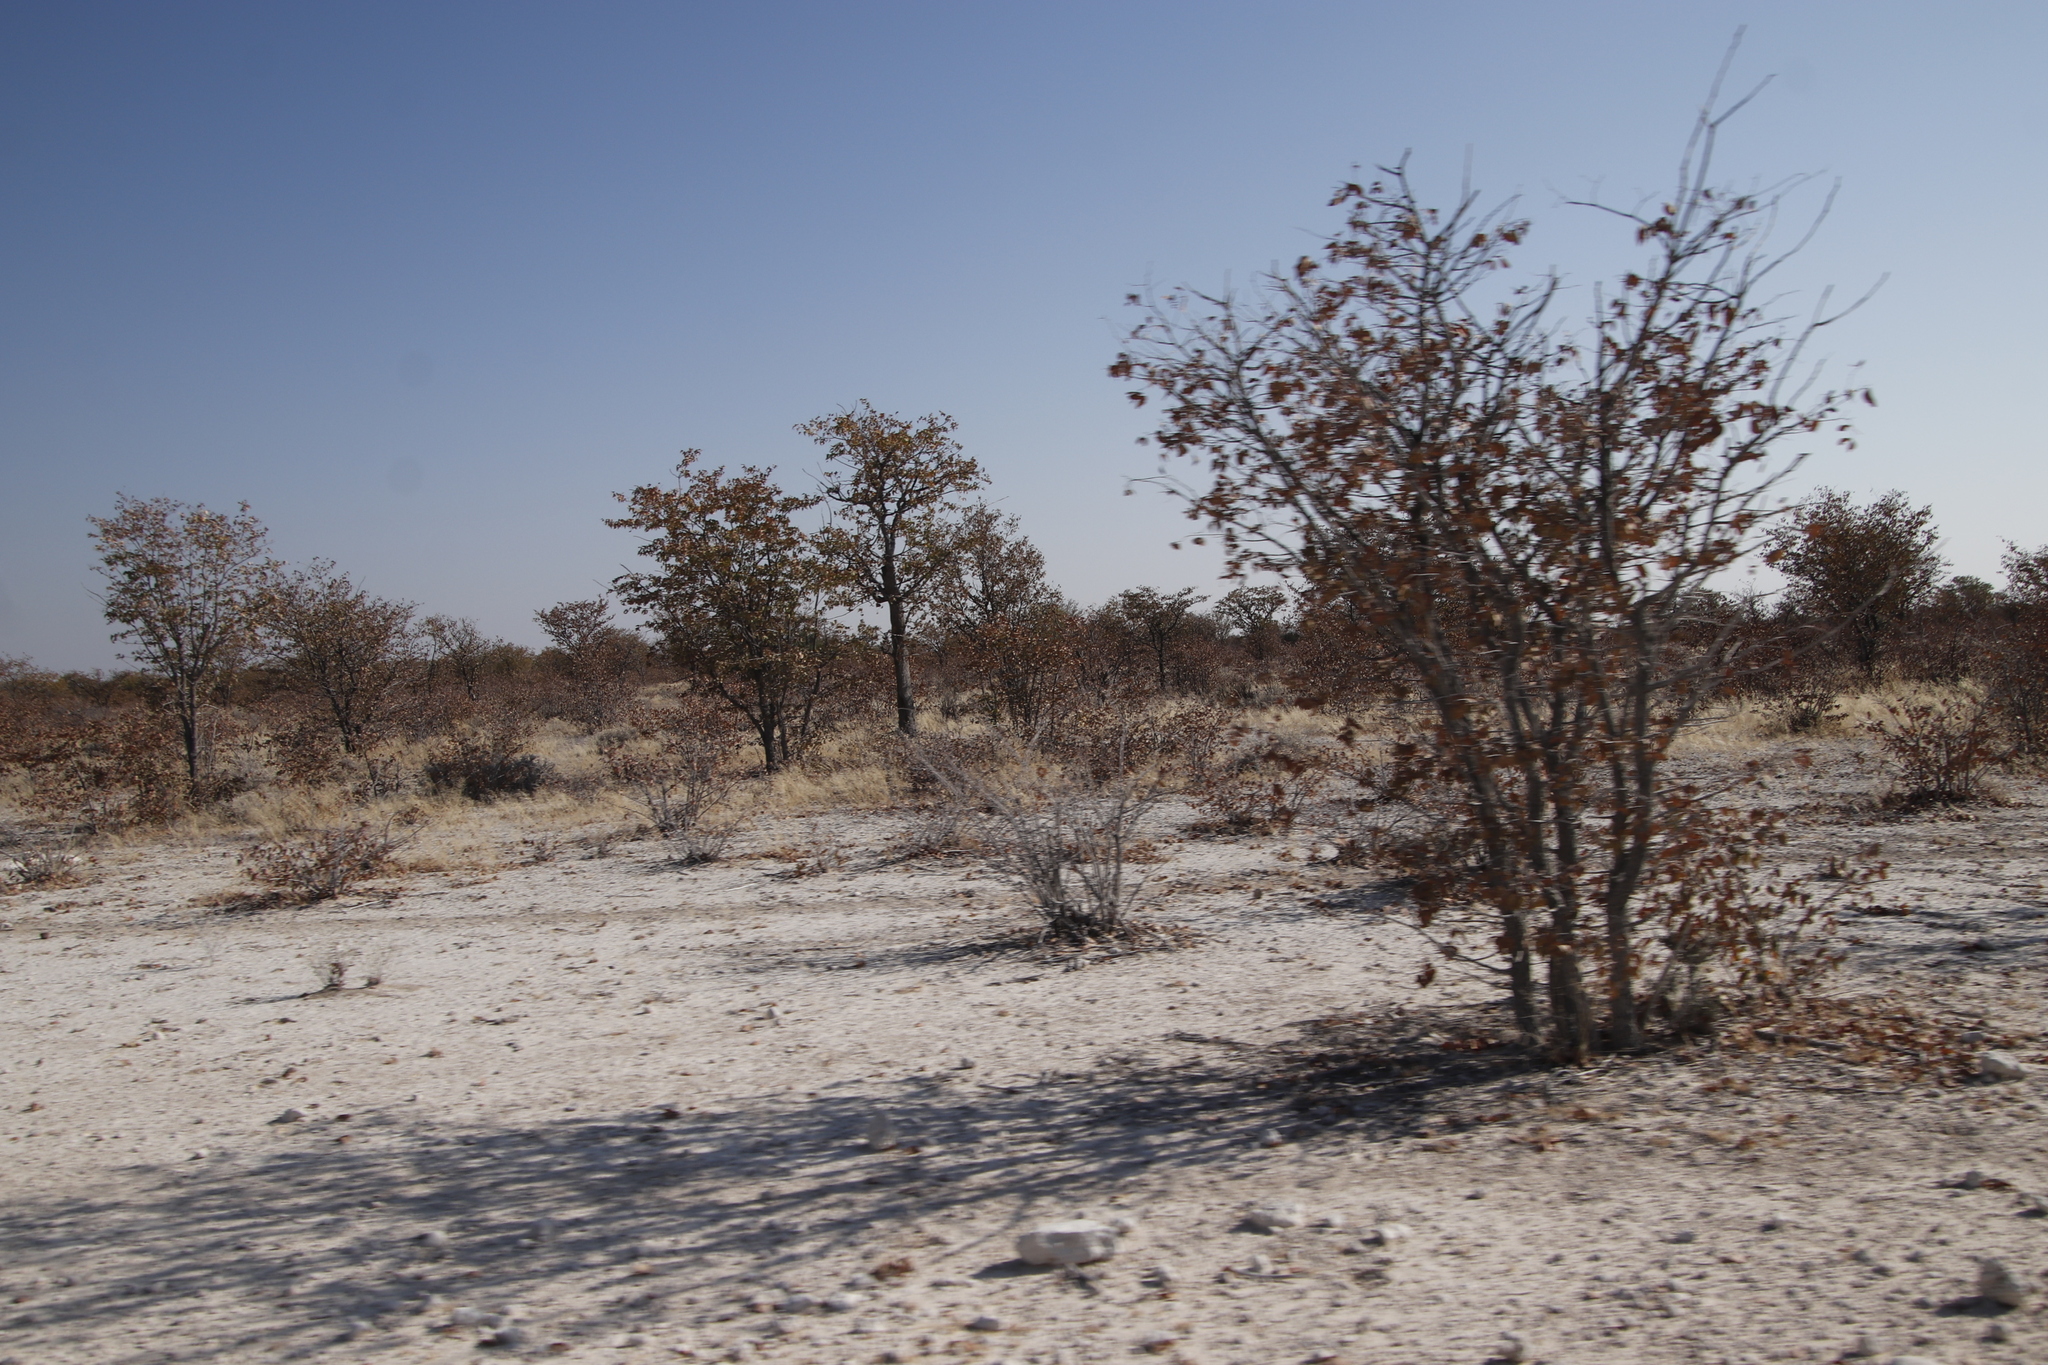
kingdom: Plantae
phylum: Tracheophyta
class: Magnoliopsida
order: Fabales
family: Fabaceae
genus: Colophospermum
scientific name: Colophospermum mopane
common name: Mopane
